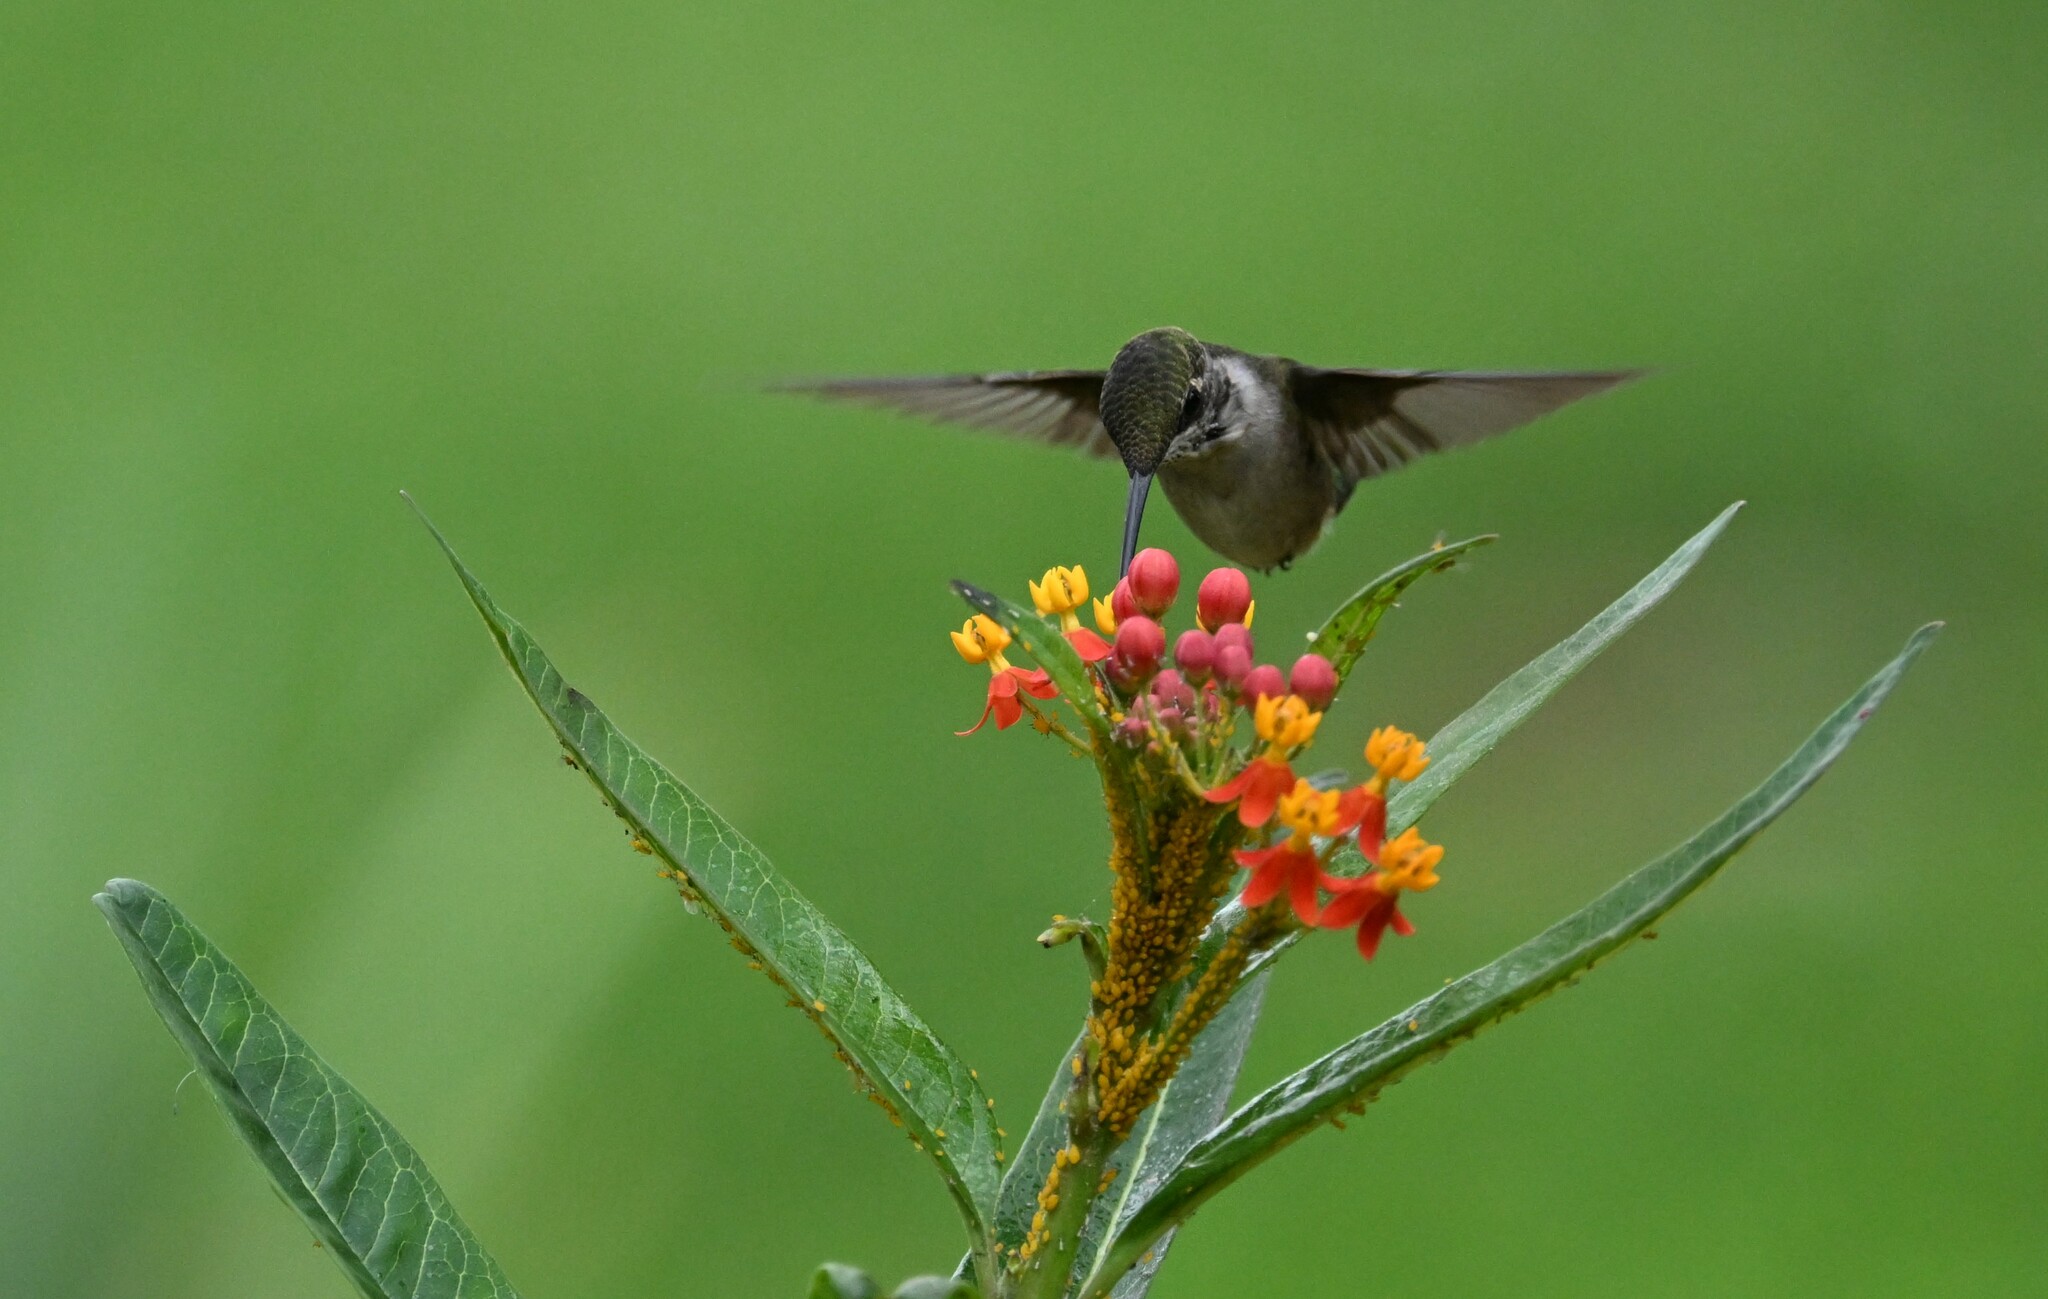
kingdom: Animalia
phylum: Chordata
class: Aves
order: Apodiformes
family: Trochilidae
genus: Archilochus
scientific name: Archilochus colubris
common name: Ruby-throated hummingbird
